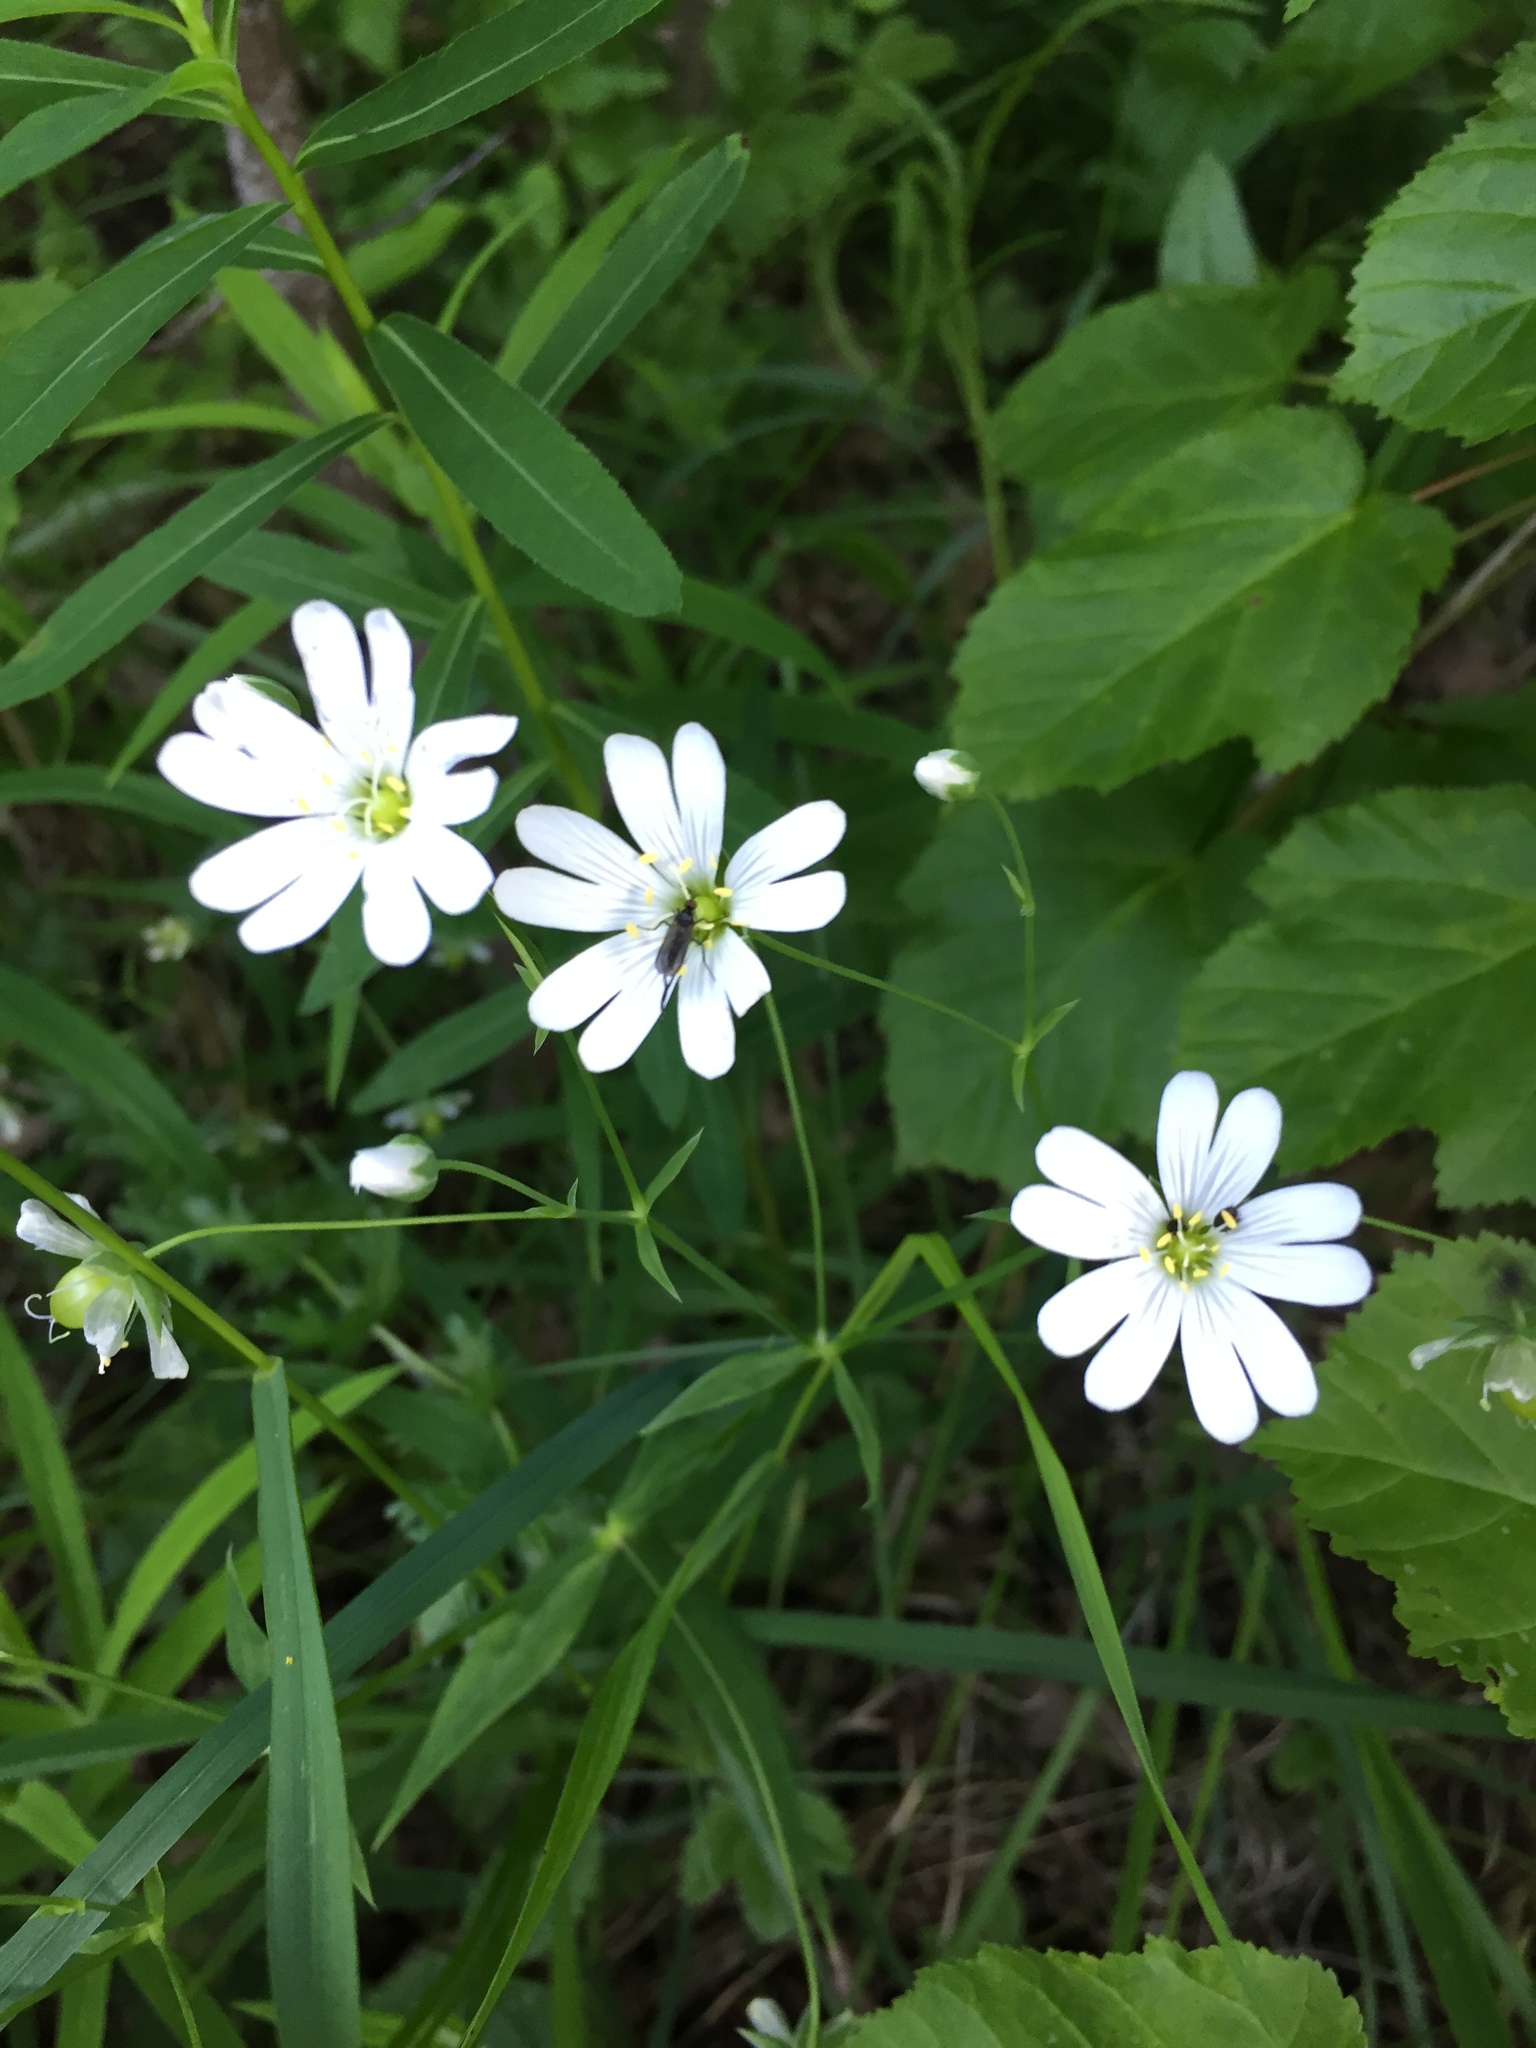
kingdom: Plantae
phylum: Tracheophyta
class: Magnoliopsida
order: Caryophyllales
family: Caryophyllaceae
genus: Rabelera
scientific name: Rabelera holostea
